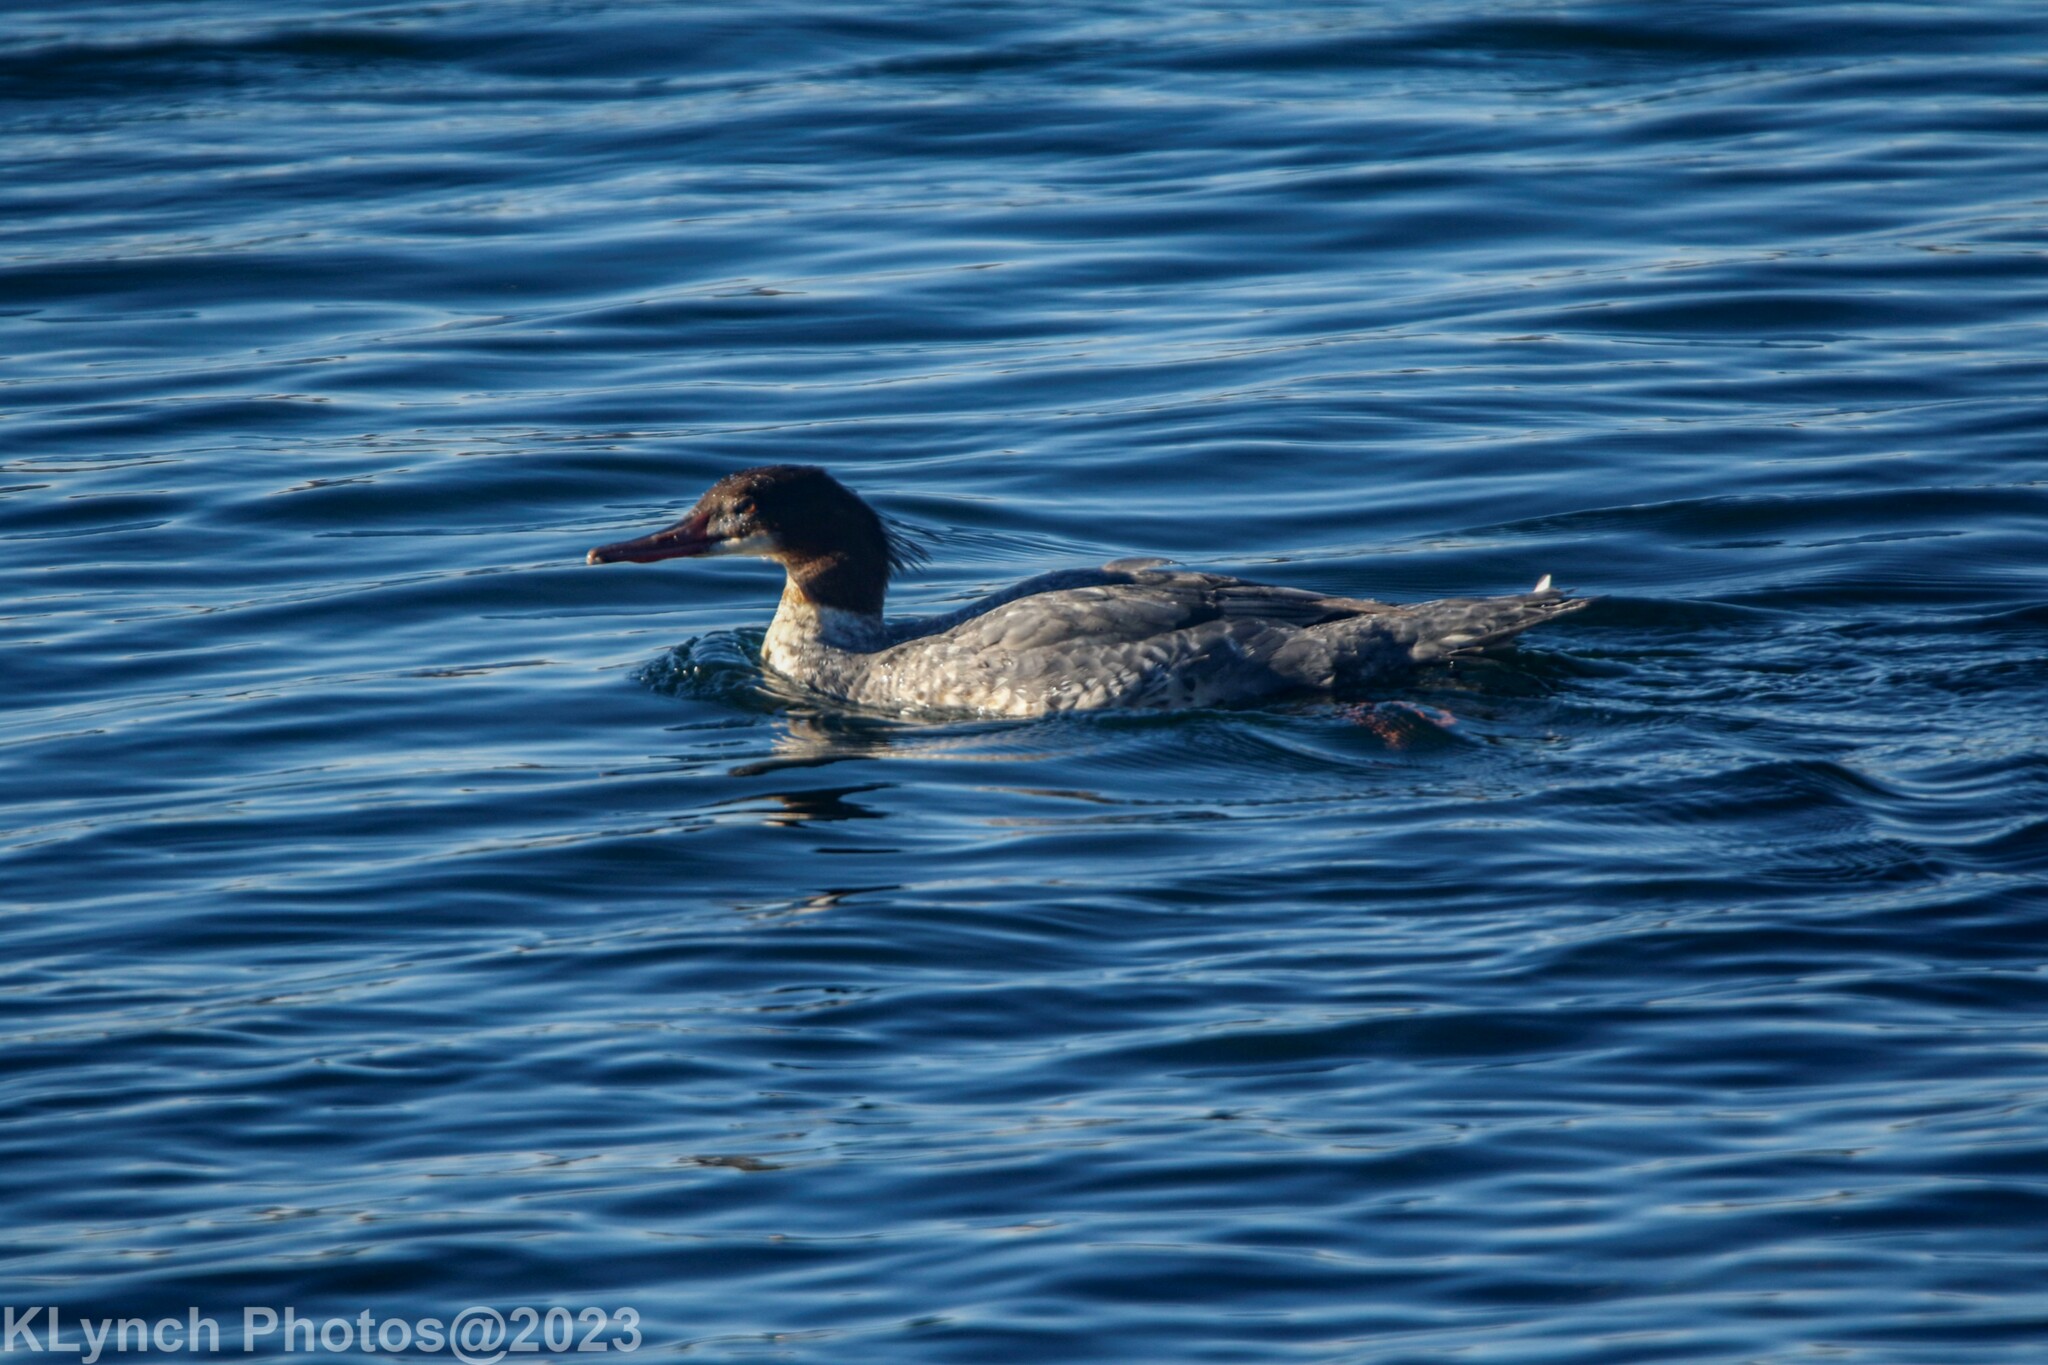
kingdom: Animalia
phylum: Chordata
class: Aves
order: Anseriformes
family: Anatidae
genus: Mergus
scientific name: Mergus merganser
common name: Common merganser
